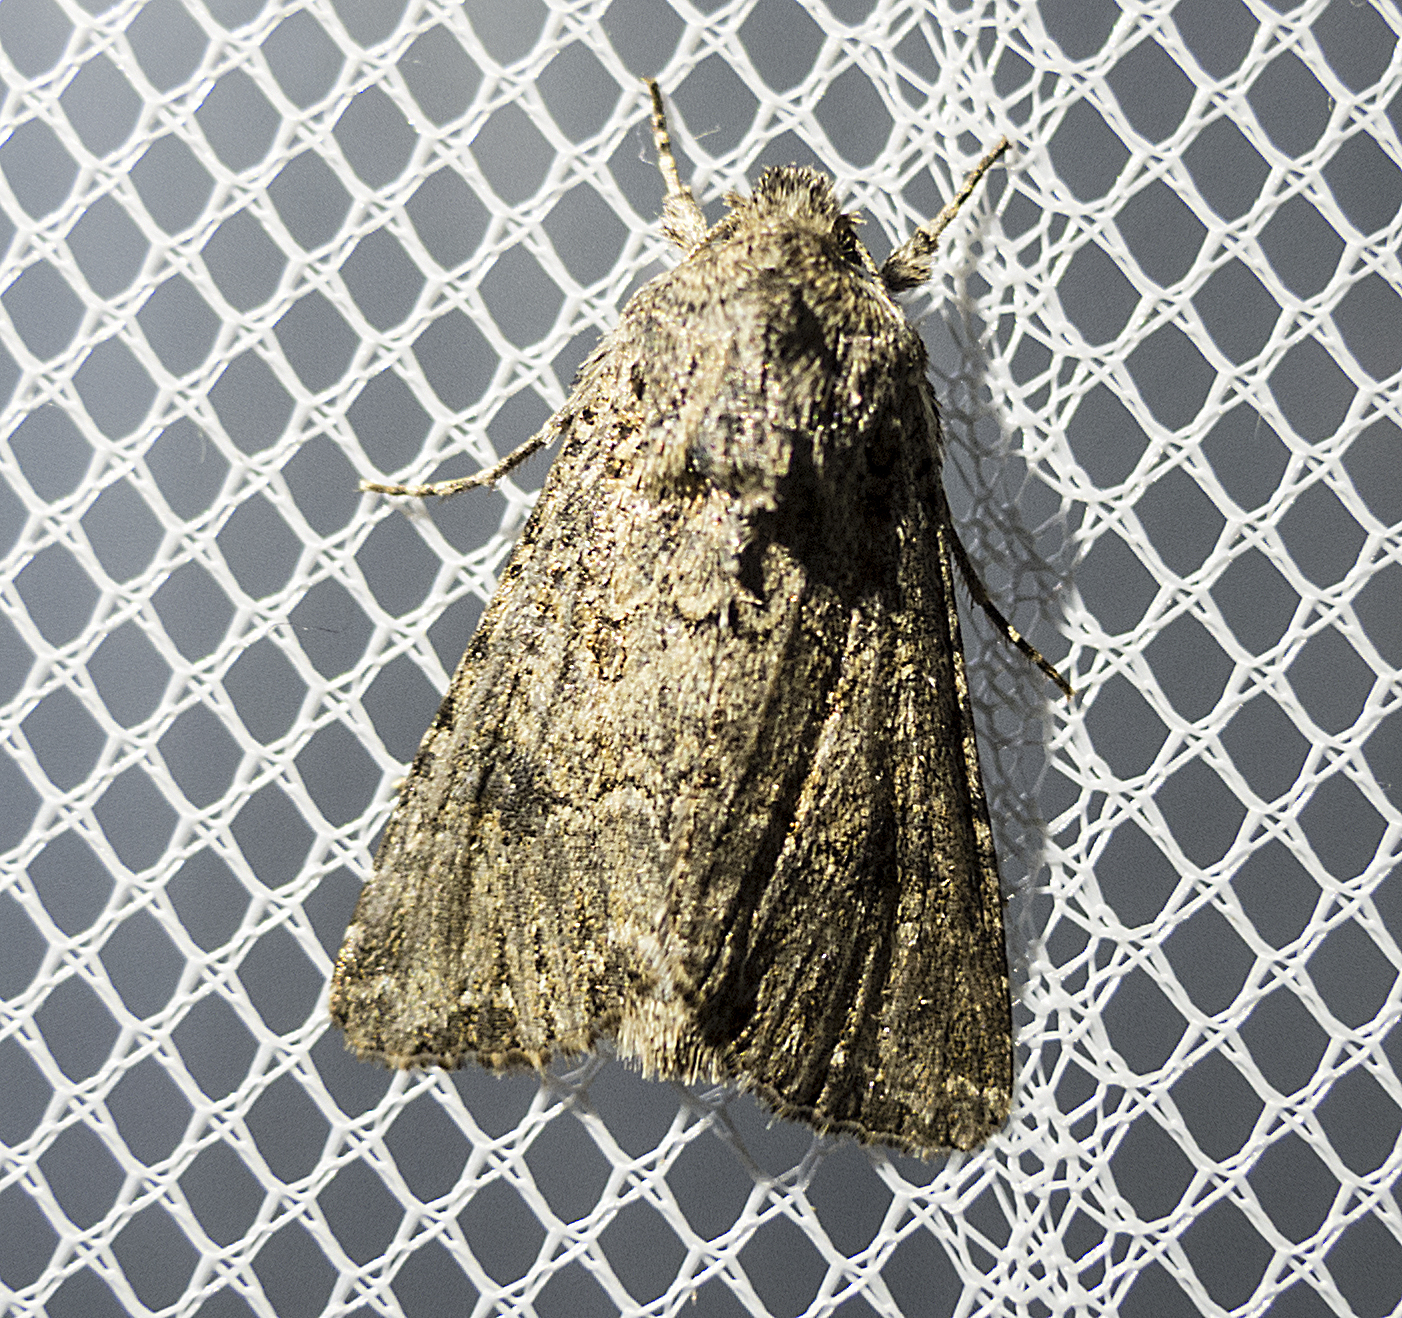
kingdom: Animalia
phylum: Arthropoda
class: Insecta
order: Lepidoptera
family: Noctuidae
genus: Anarta
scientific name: Anarta trifolii
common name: Clover cutworm moth
